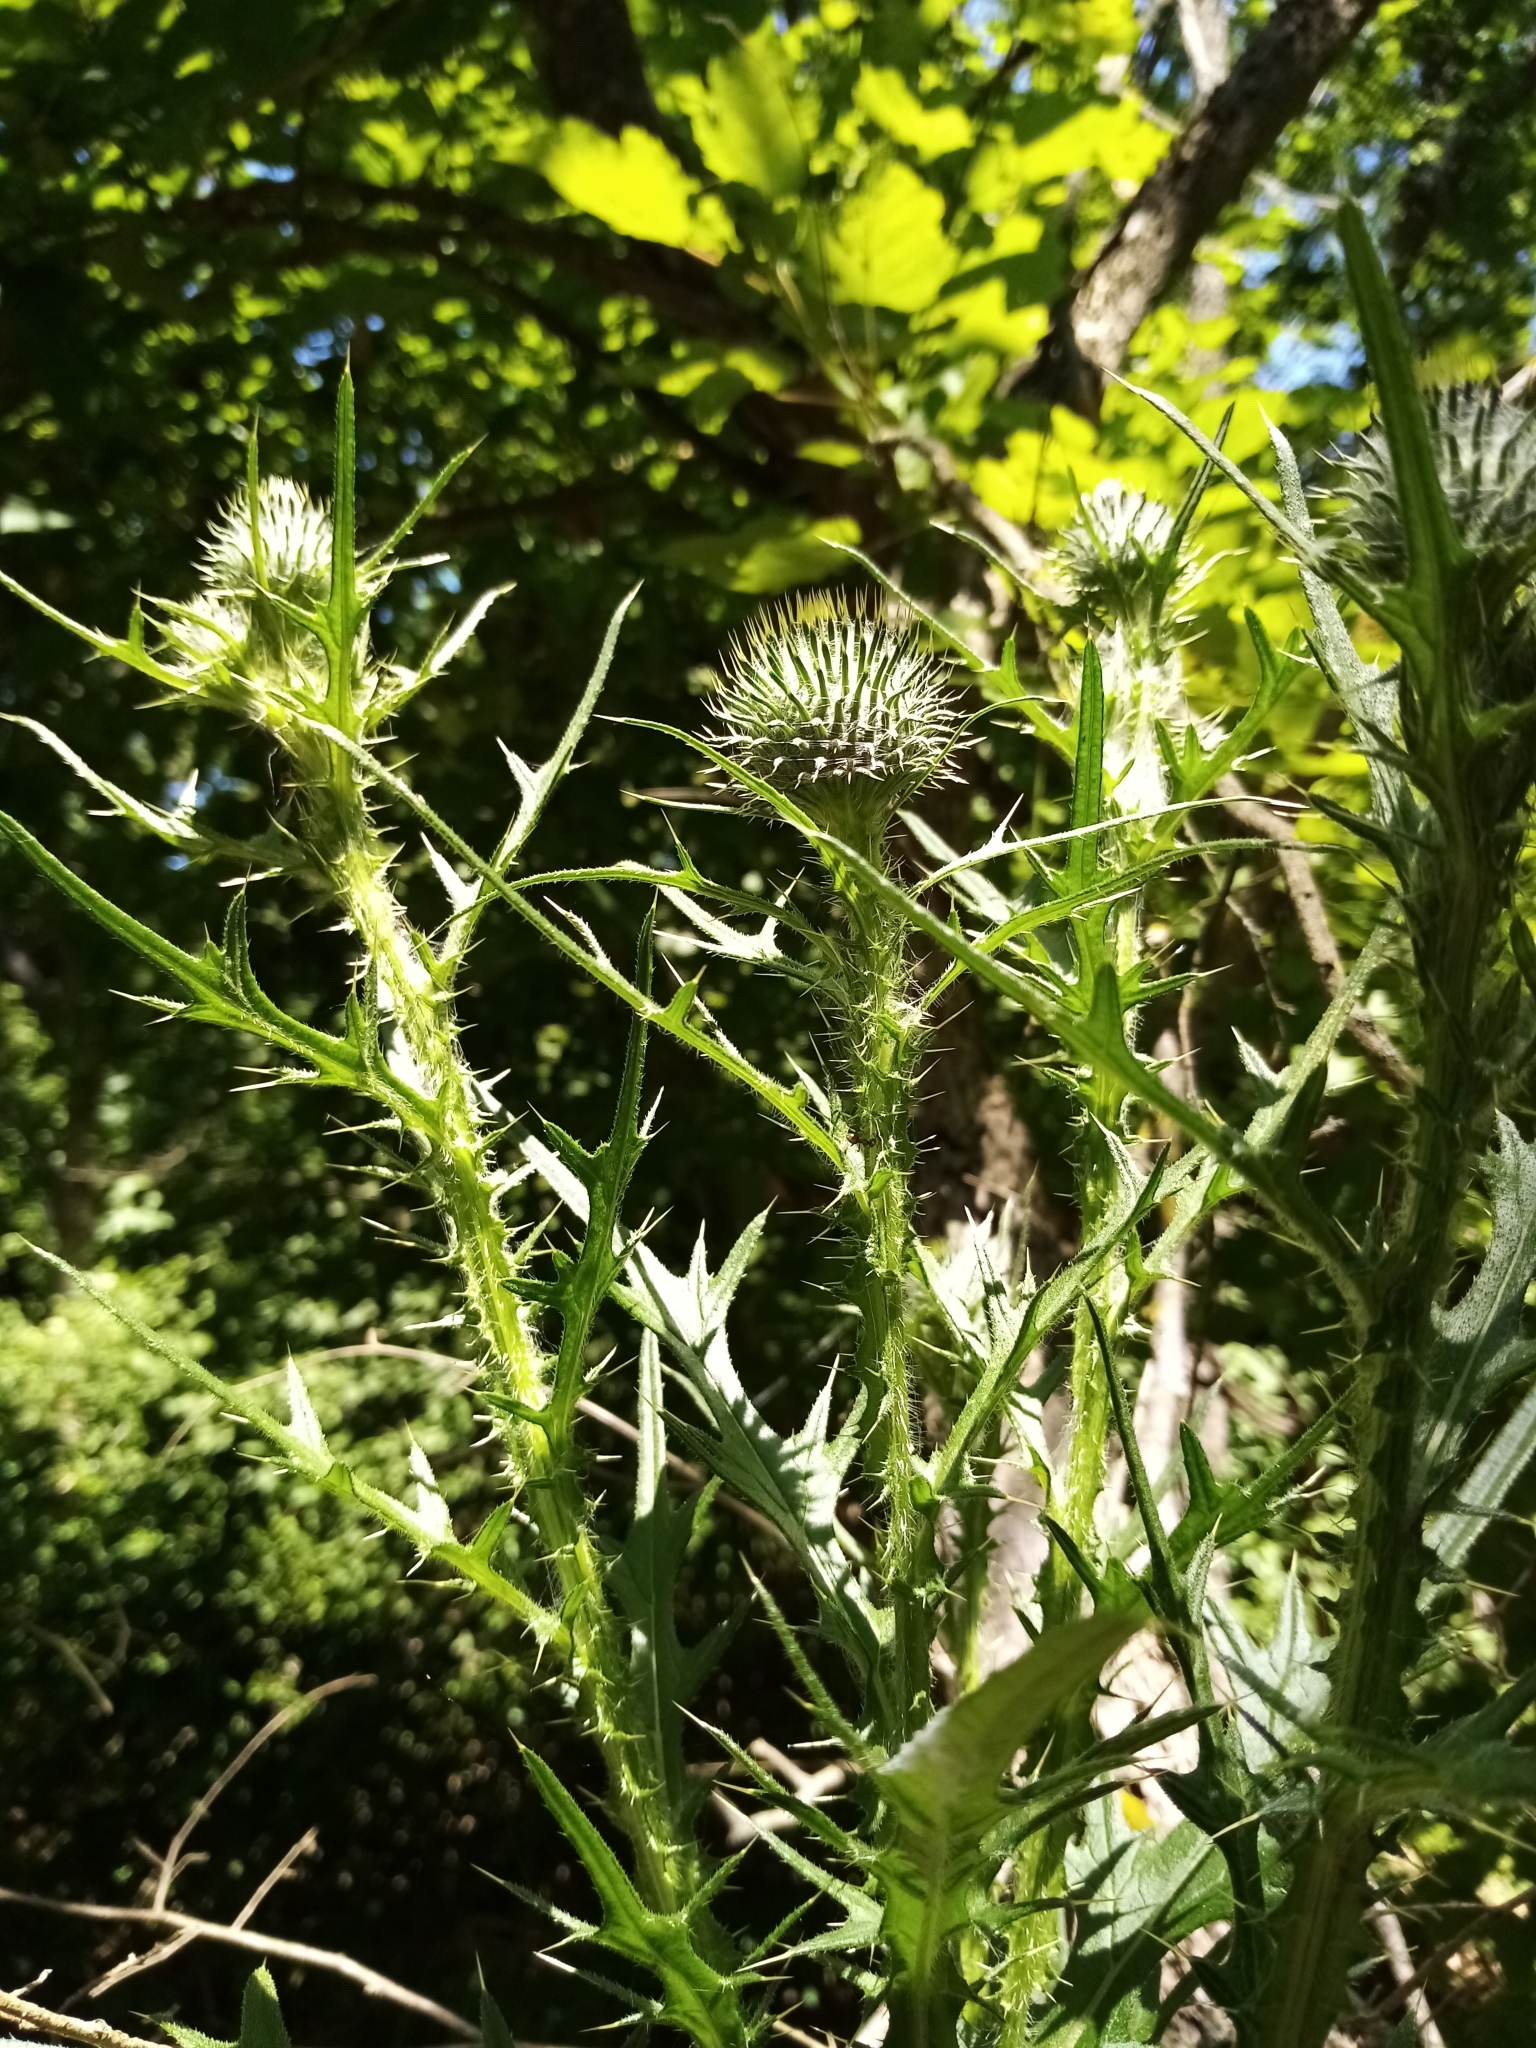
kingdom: Plantae
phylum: Tracheophyta
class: Magnoliopsida
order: Asterales
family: Asteraceae
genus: Cirsium
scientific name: Cirsium vulgare
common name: Bull thistle
